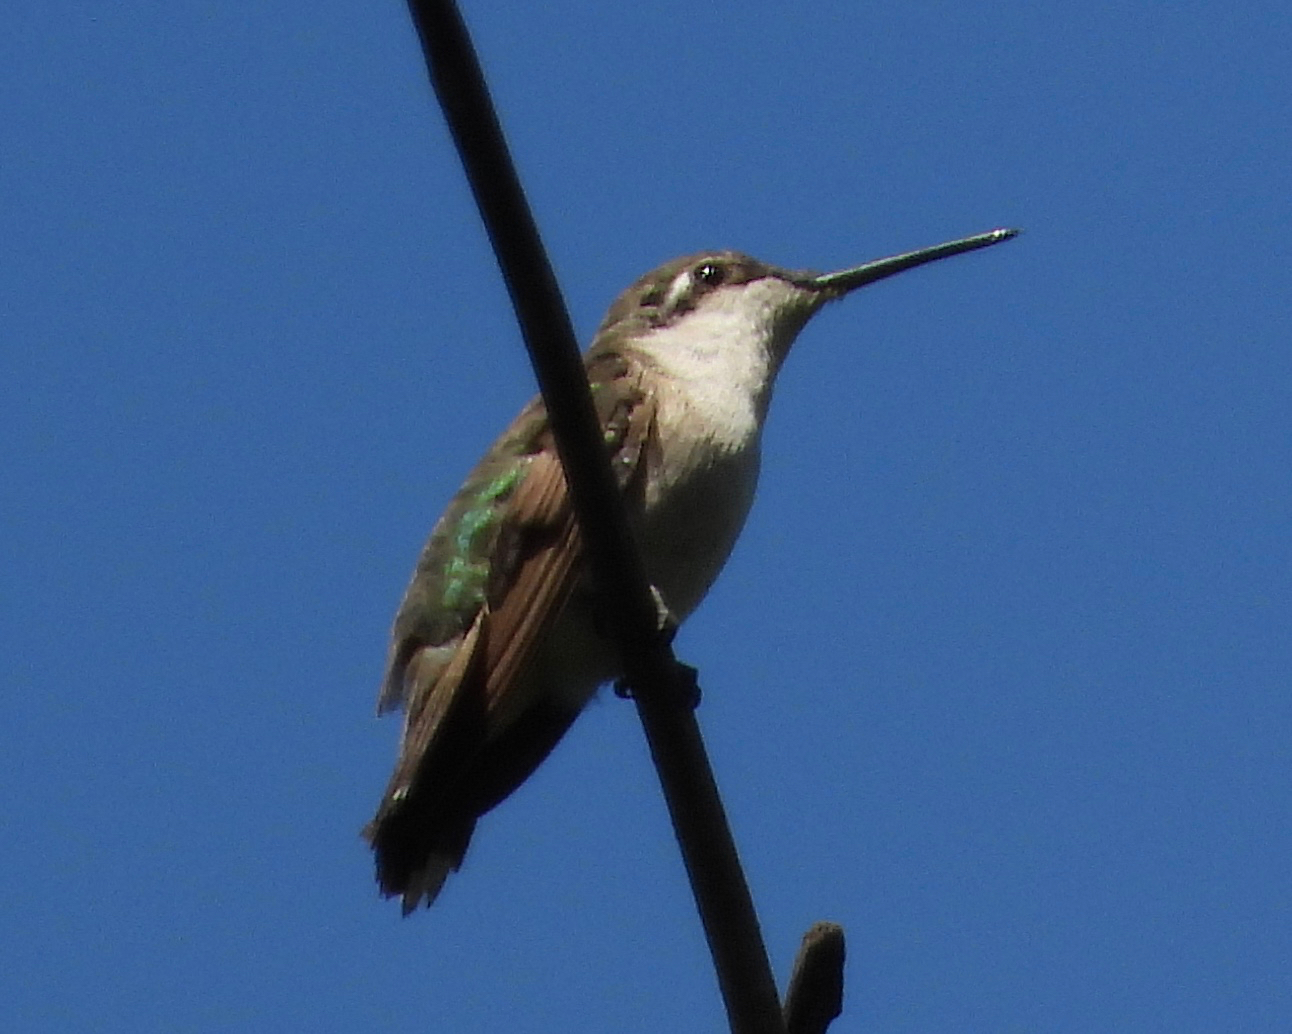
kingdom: Animalia
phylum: Chordata
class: Aves
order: Apodiformes
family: Trochilidae
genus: Archilochus
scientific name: Archilochus colubris
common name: Ruby-throated hummingbird
